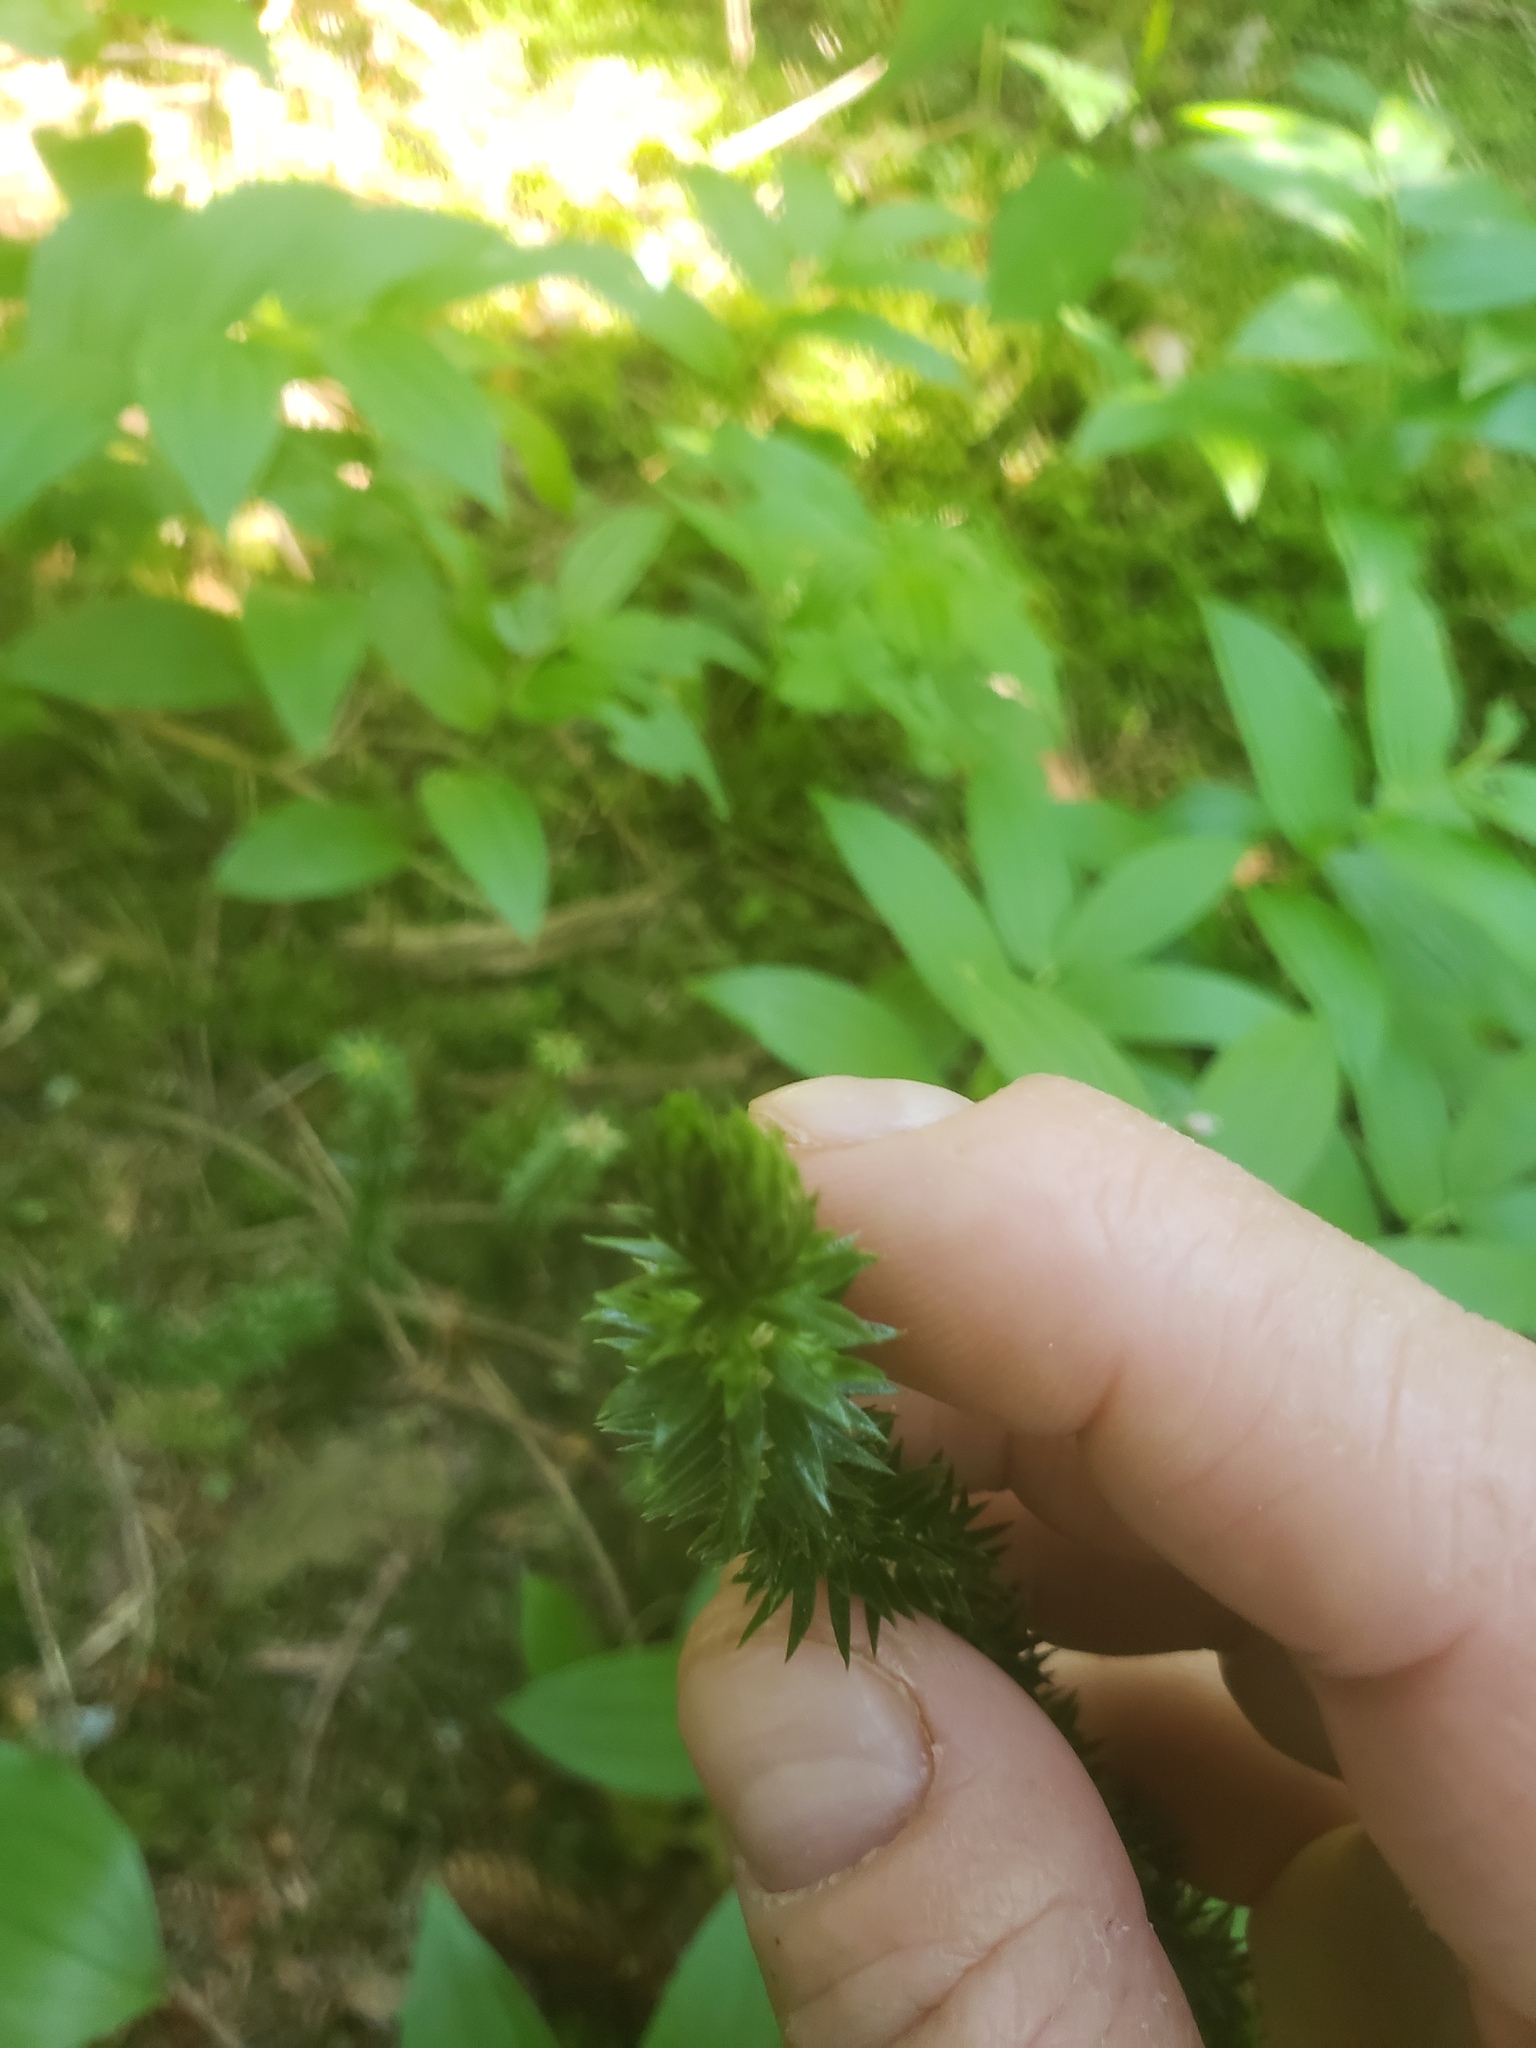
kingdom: Plantae
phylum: Tracheophyta
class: Lycopodiopsida
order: Lycopodiales
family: Lycopodiaceae
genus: Huperzia
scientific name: Huperzia occidentalis
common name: Western clubmoss
